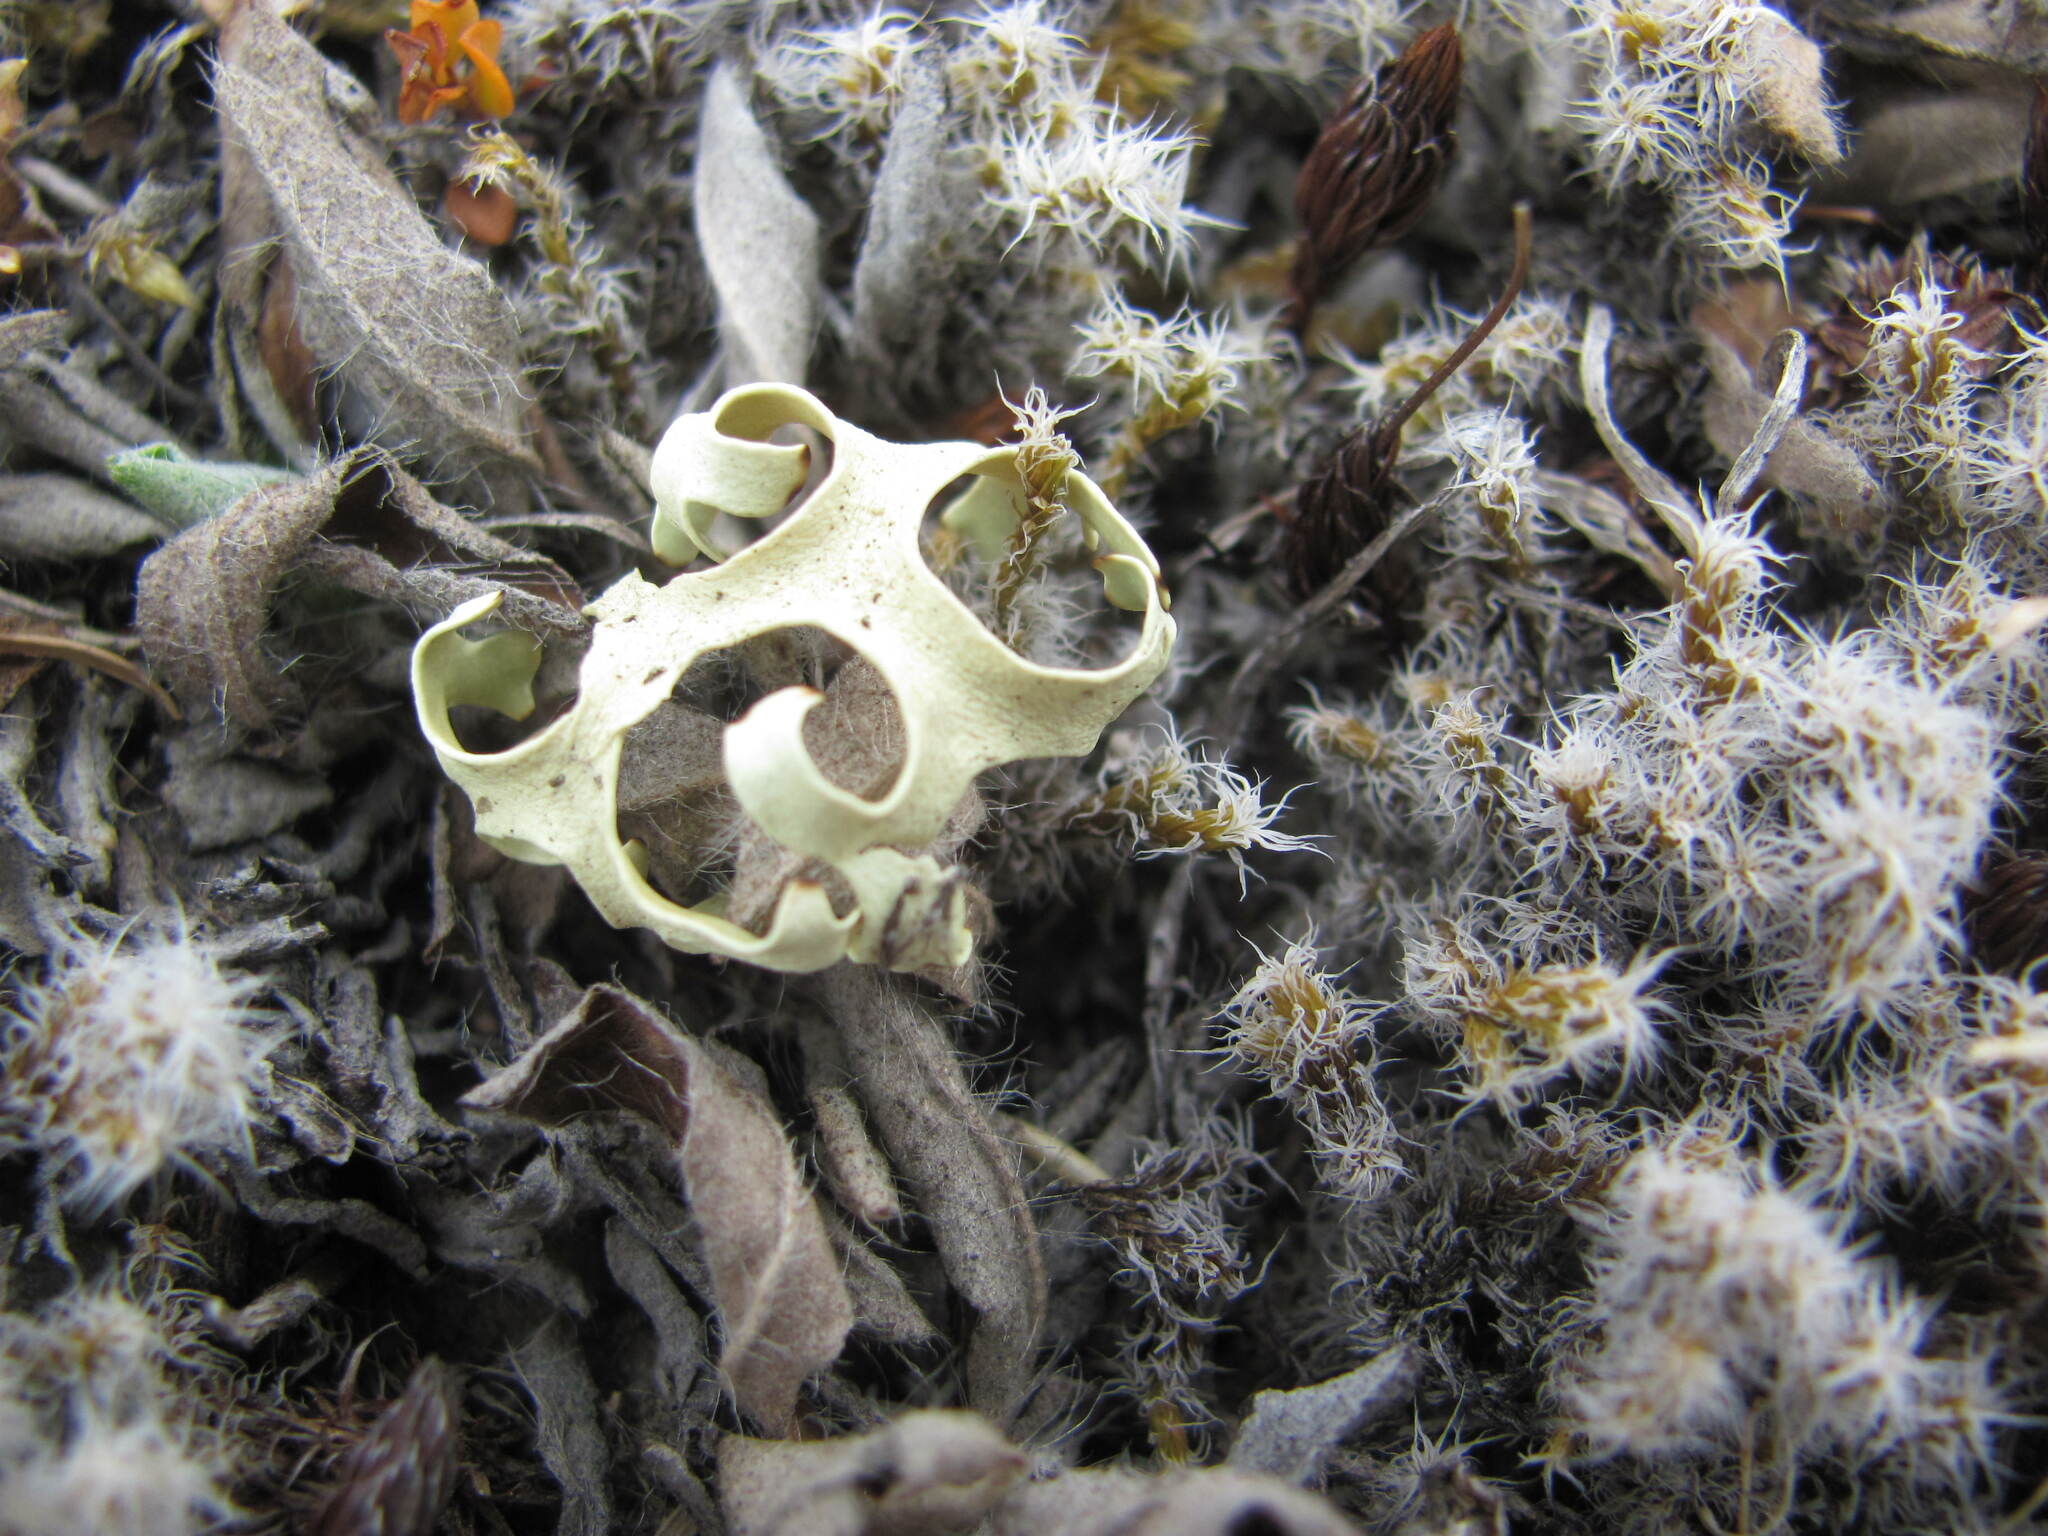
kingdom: Fungi
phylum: Ascomycota
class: Lecanoromycetes
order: Lecanorales
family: Parmeliaceae
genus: Xanthoparmelia
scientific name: Xanthoparmelia semiviridis
